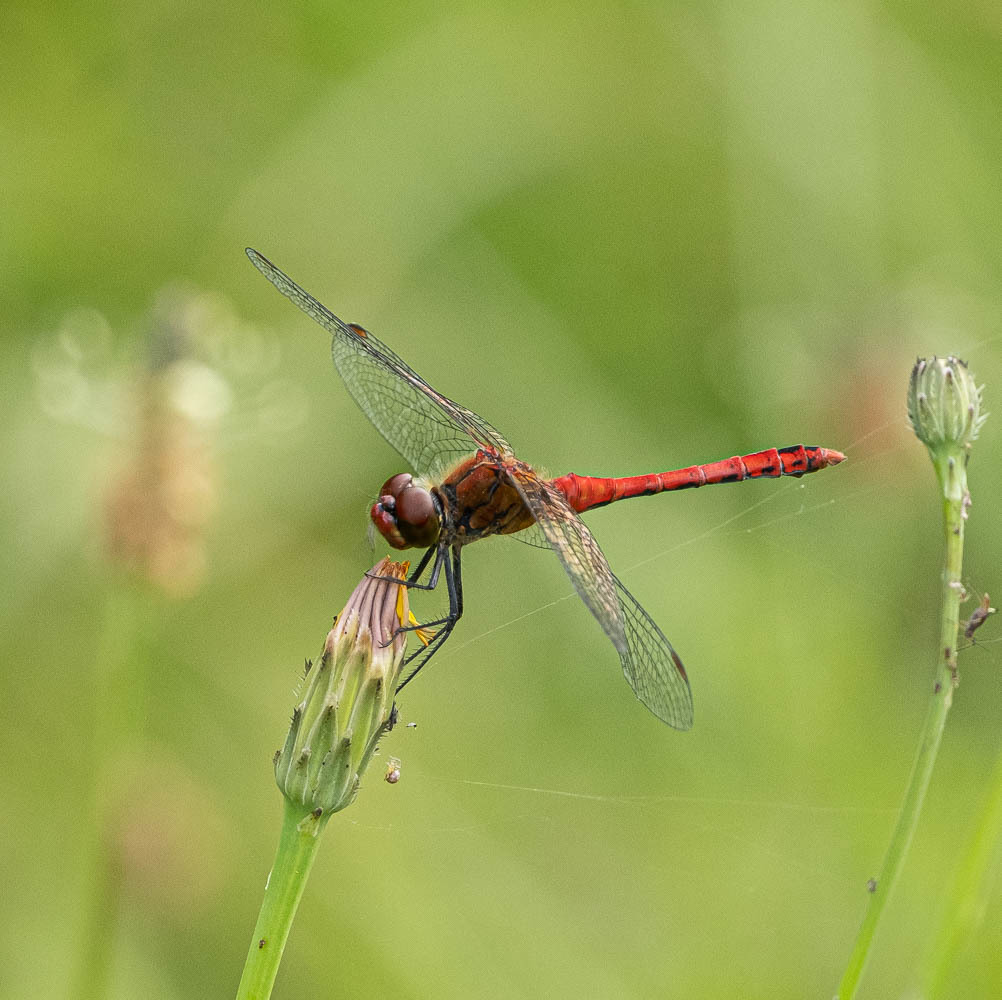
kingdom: Animalia
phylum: Arthropoda
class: Insecta
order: Odonata
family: Libellulidae
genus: Sympetrum
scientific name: Sympetrum sanguineum
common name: Ruddy darter
